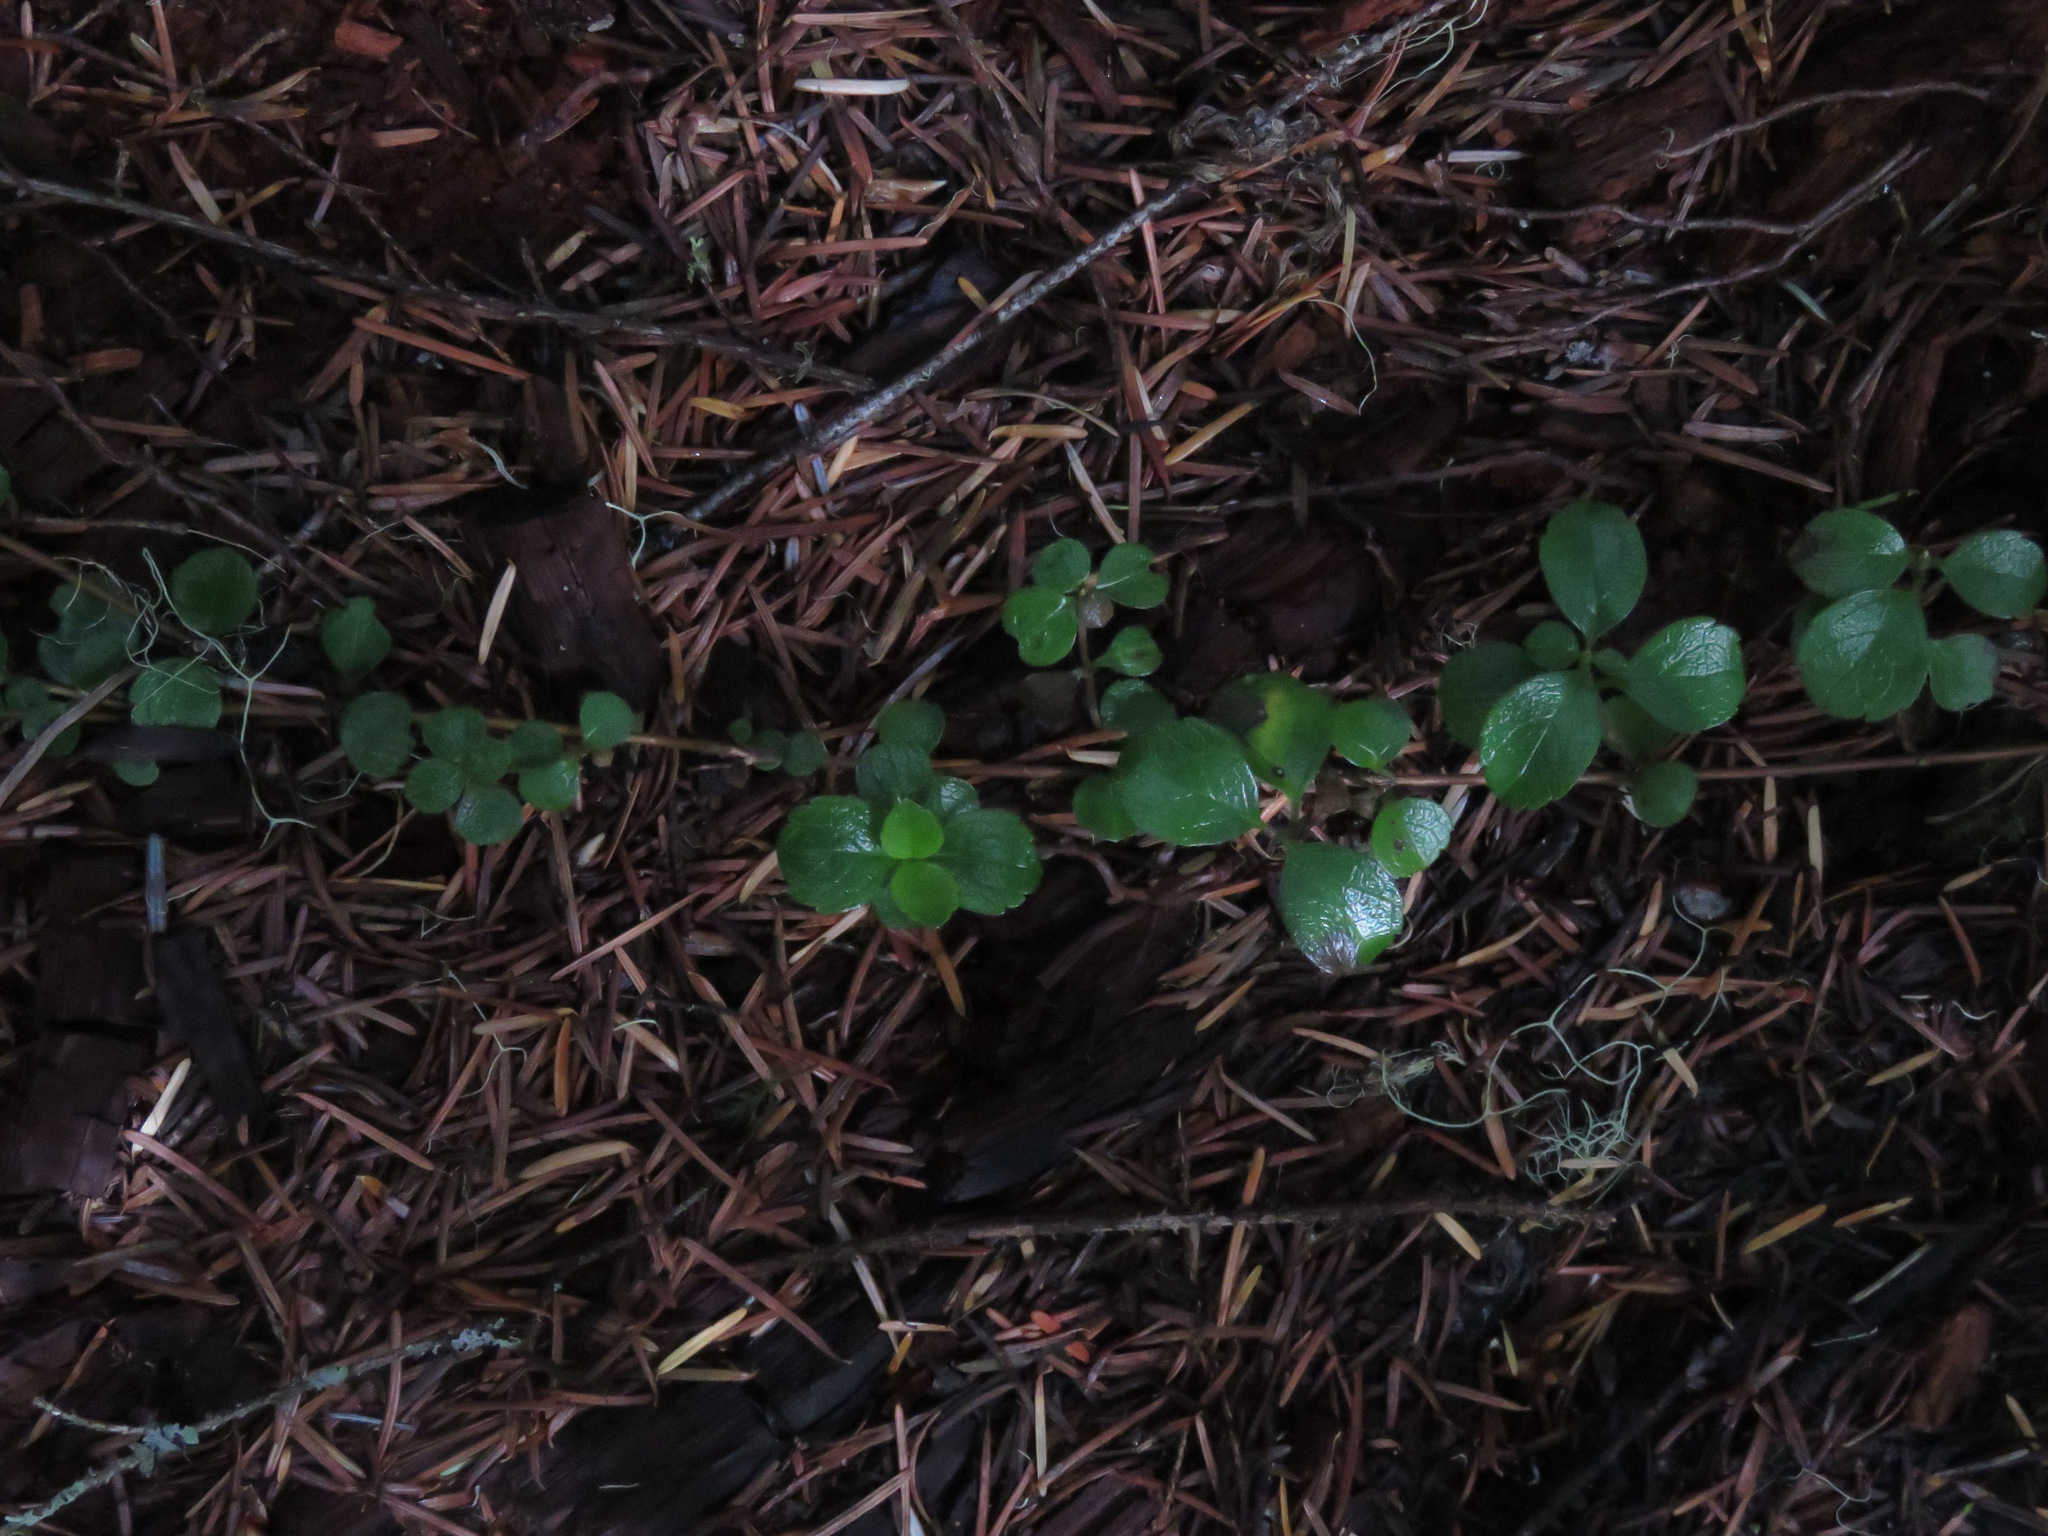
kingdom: Plantae
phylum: Tracheophyta
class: Magnoliopsida
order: Dipsacales
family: Caprifoliaceae
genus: Linnaea
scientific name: Linnaea borealis
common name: Twinflower
